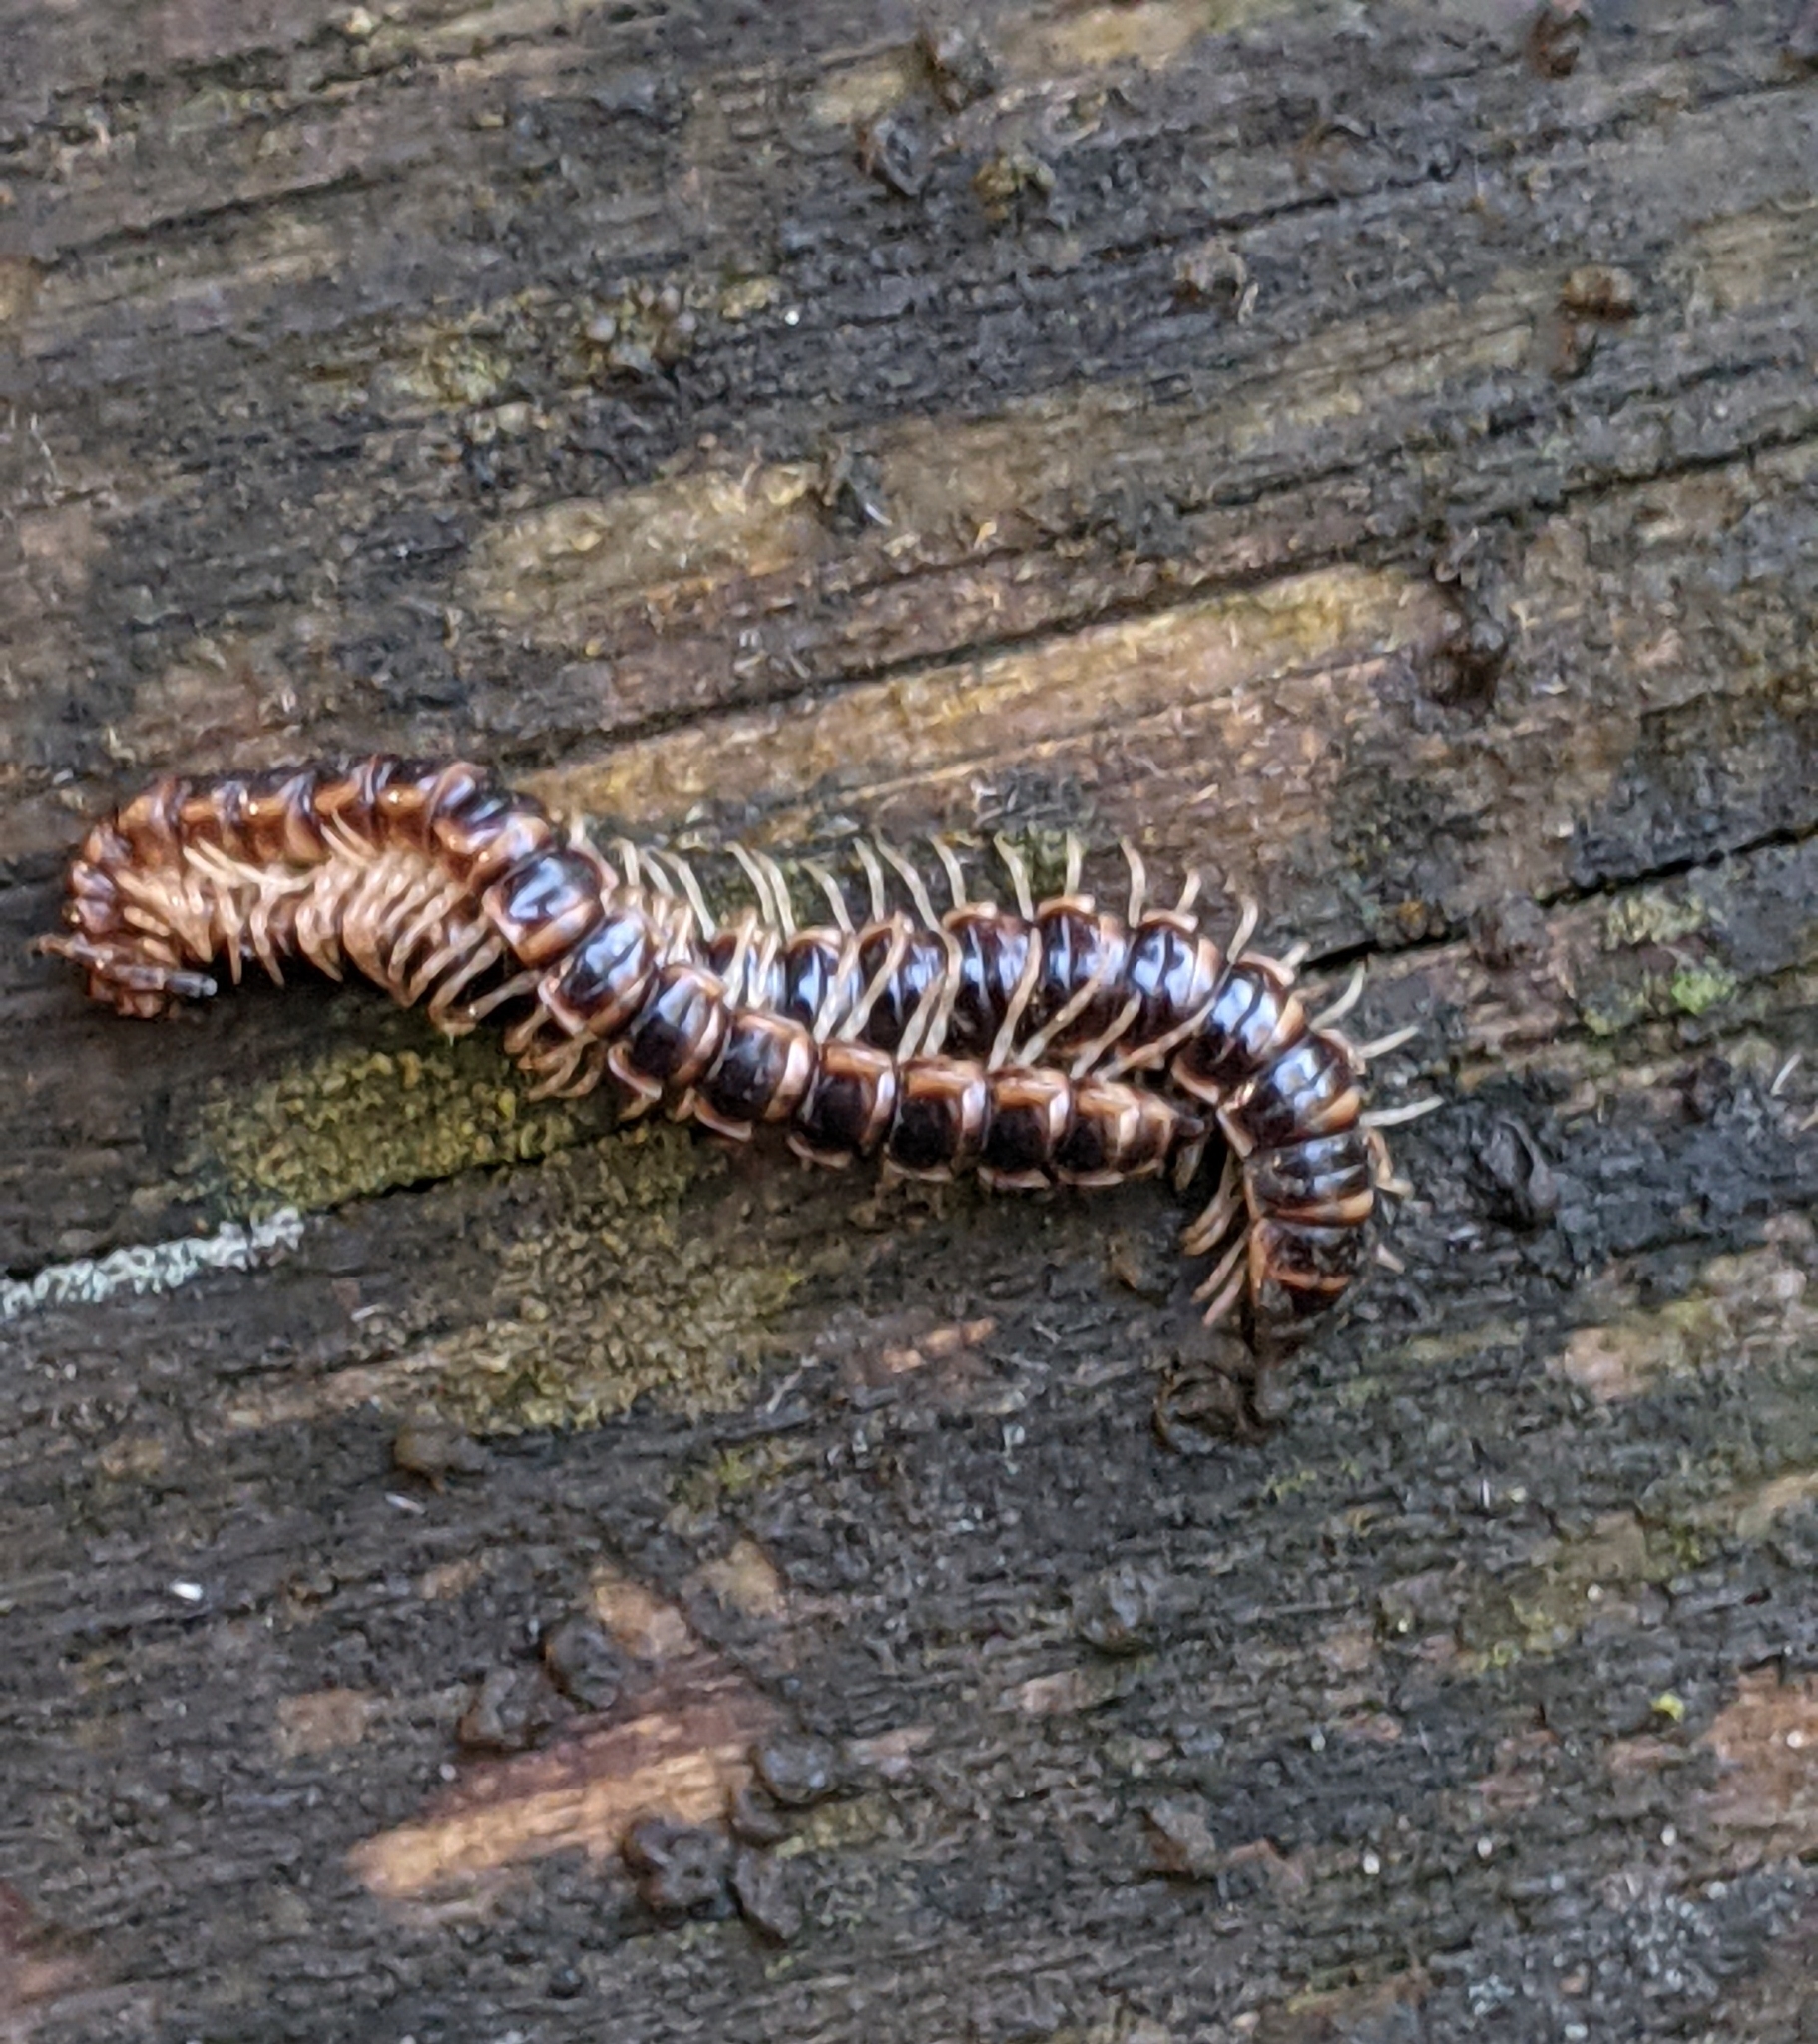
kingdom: Animalia
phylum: Arthropoda
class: Diplopoda
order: Polydesmida
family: Paradoxosomatidae
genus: Oxidus
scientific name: Oxidus gracilis
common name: Greenhouse millipede
